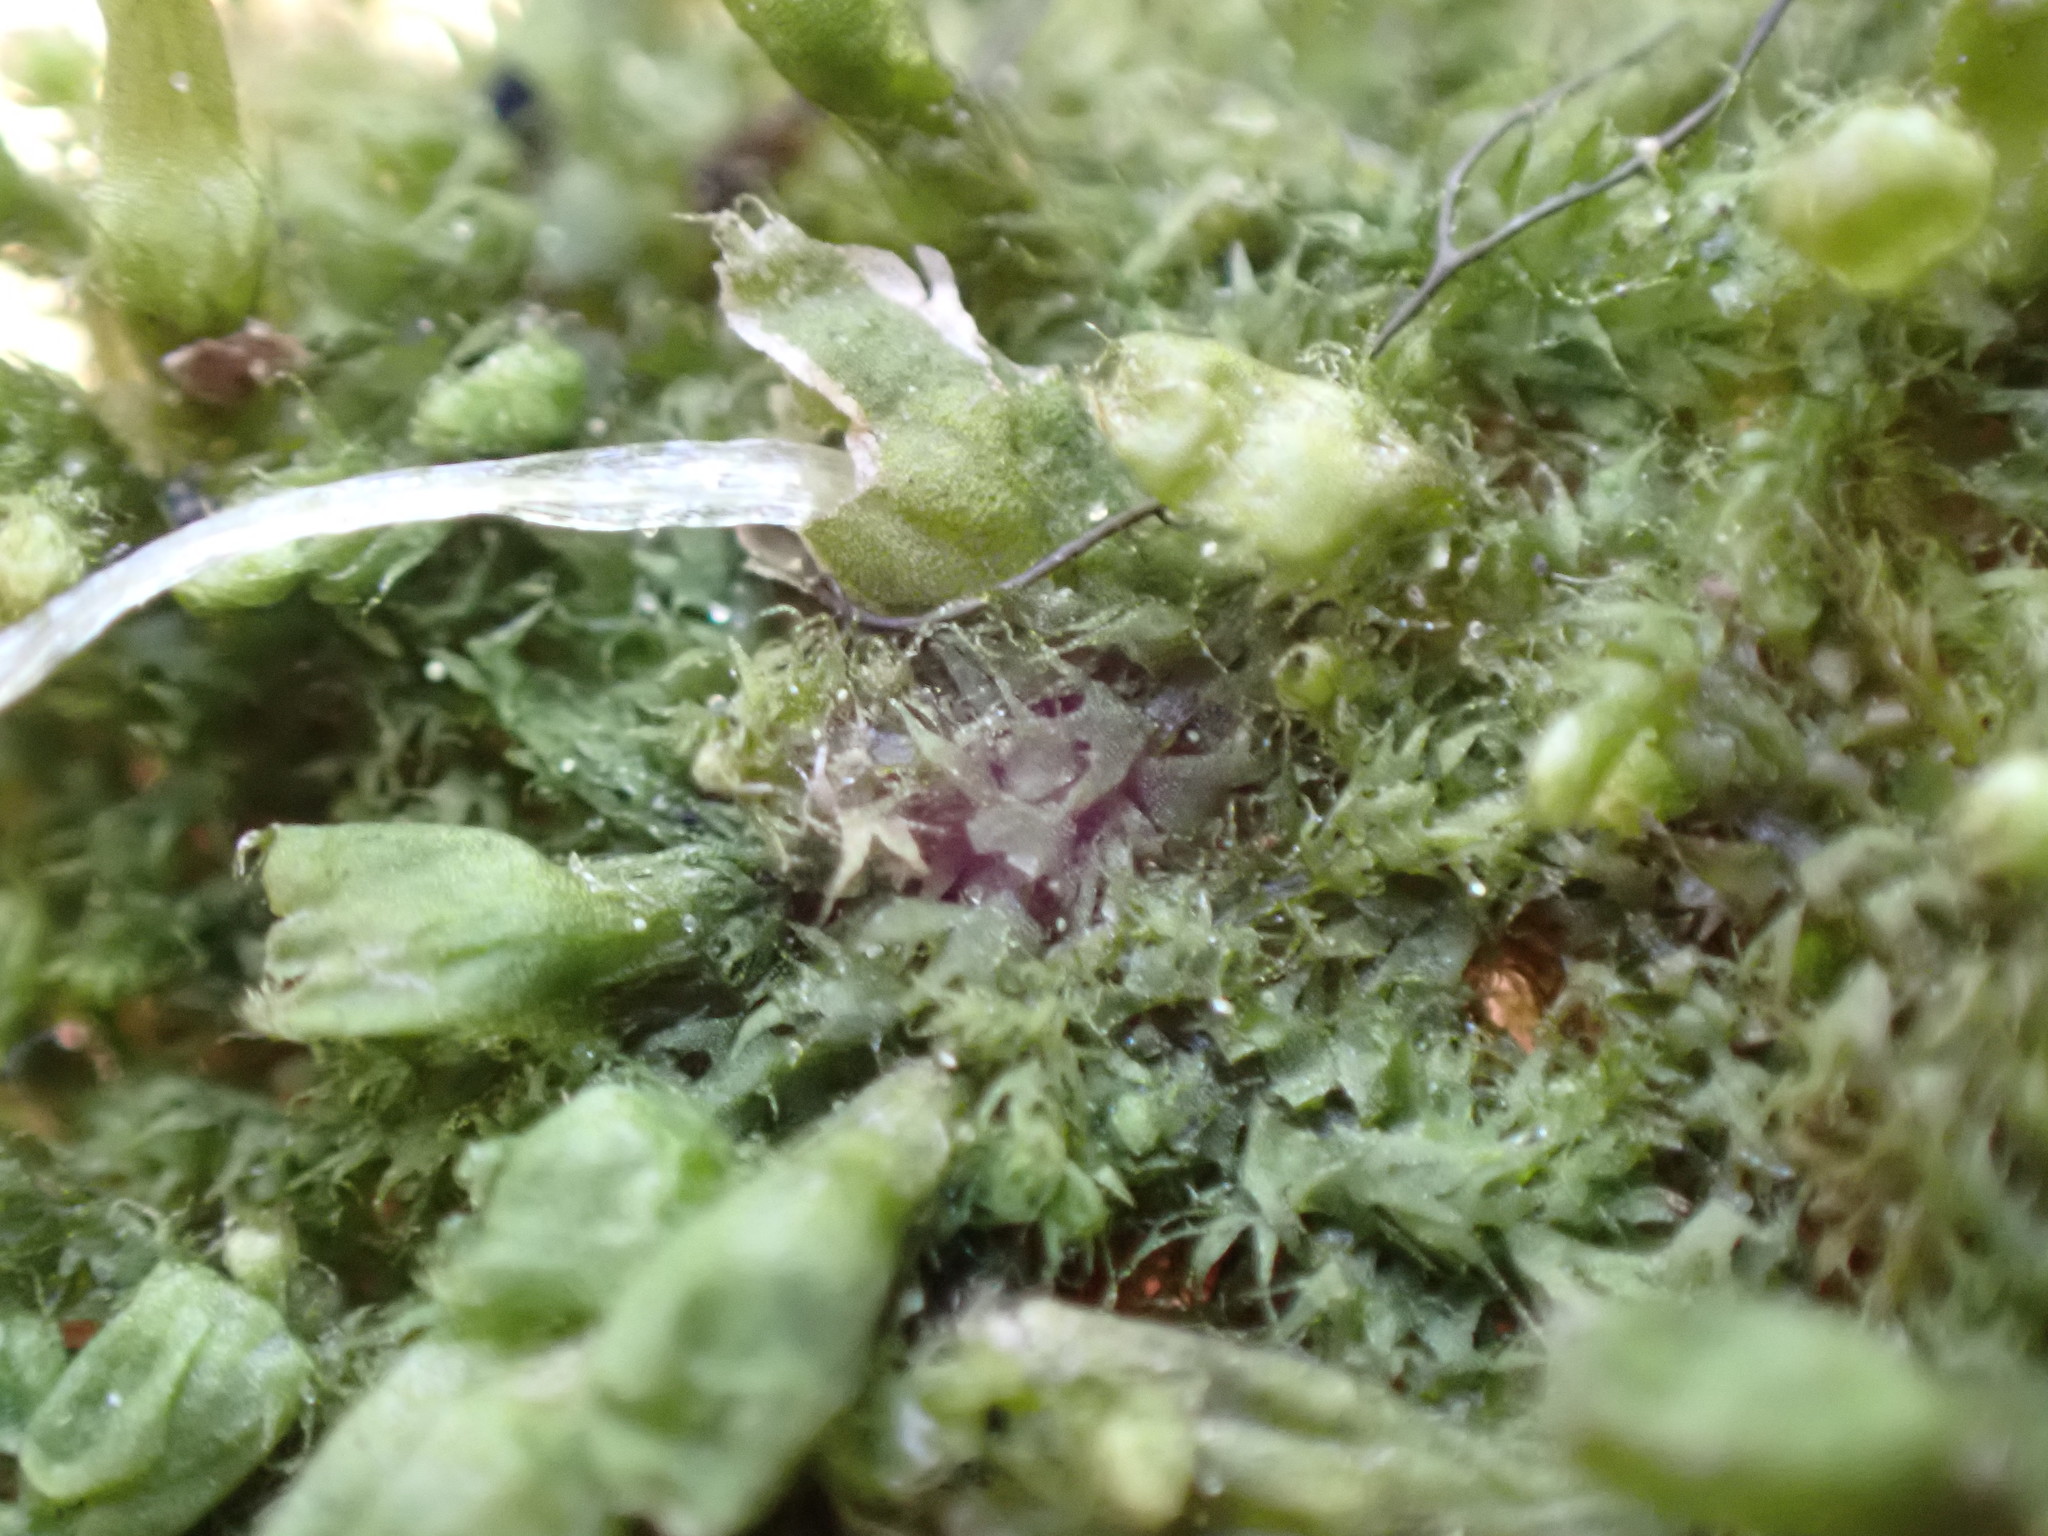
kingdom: Plantae
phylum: Marchantiophyta
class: Jungermanniopsida
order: Ptilidiales
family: Ptilidiaceae
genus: Ptilidium
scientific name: Ptilidium californicum
